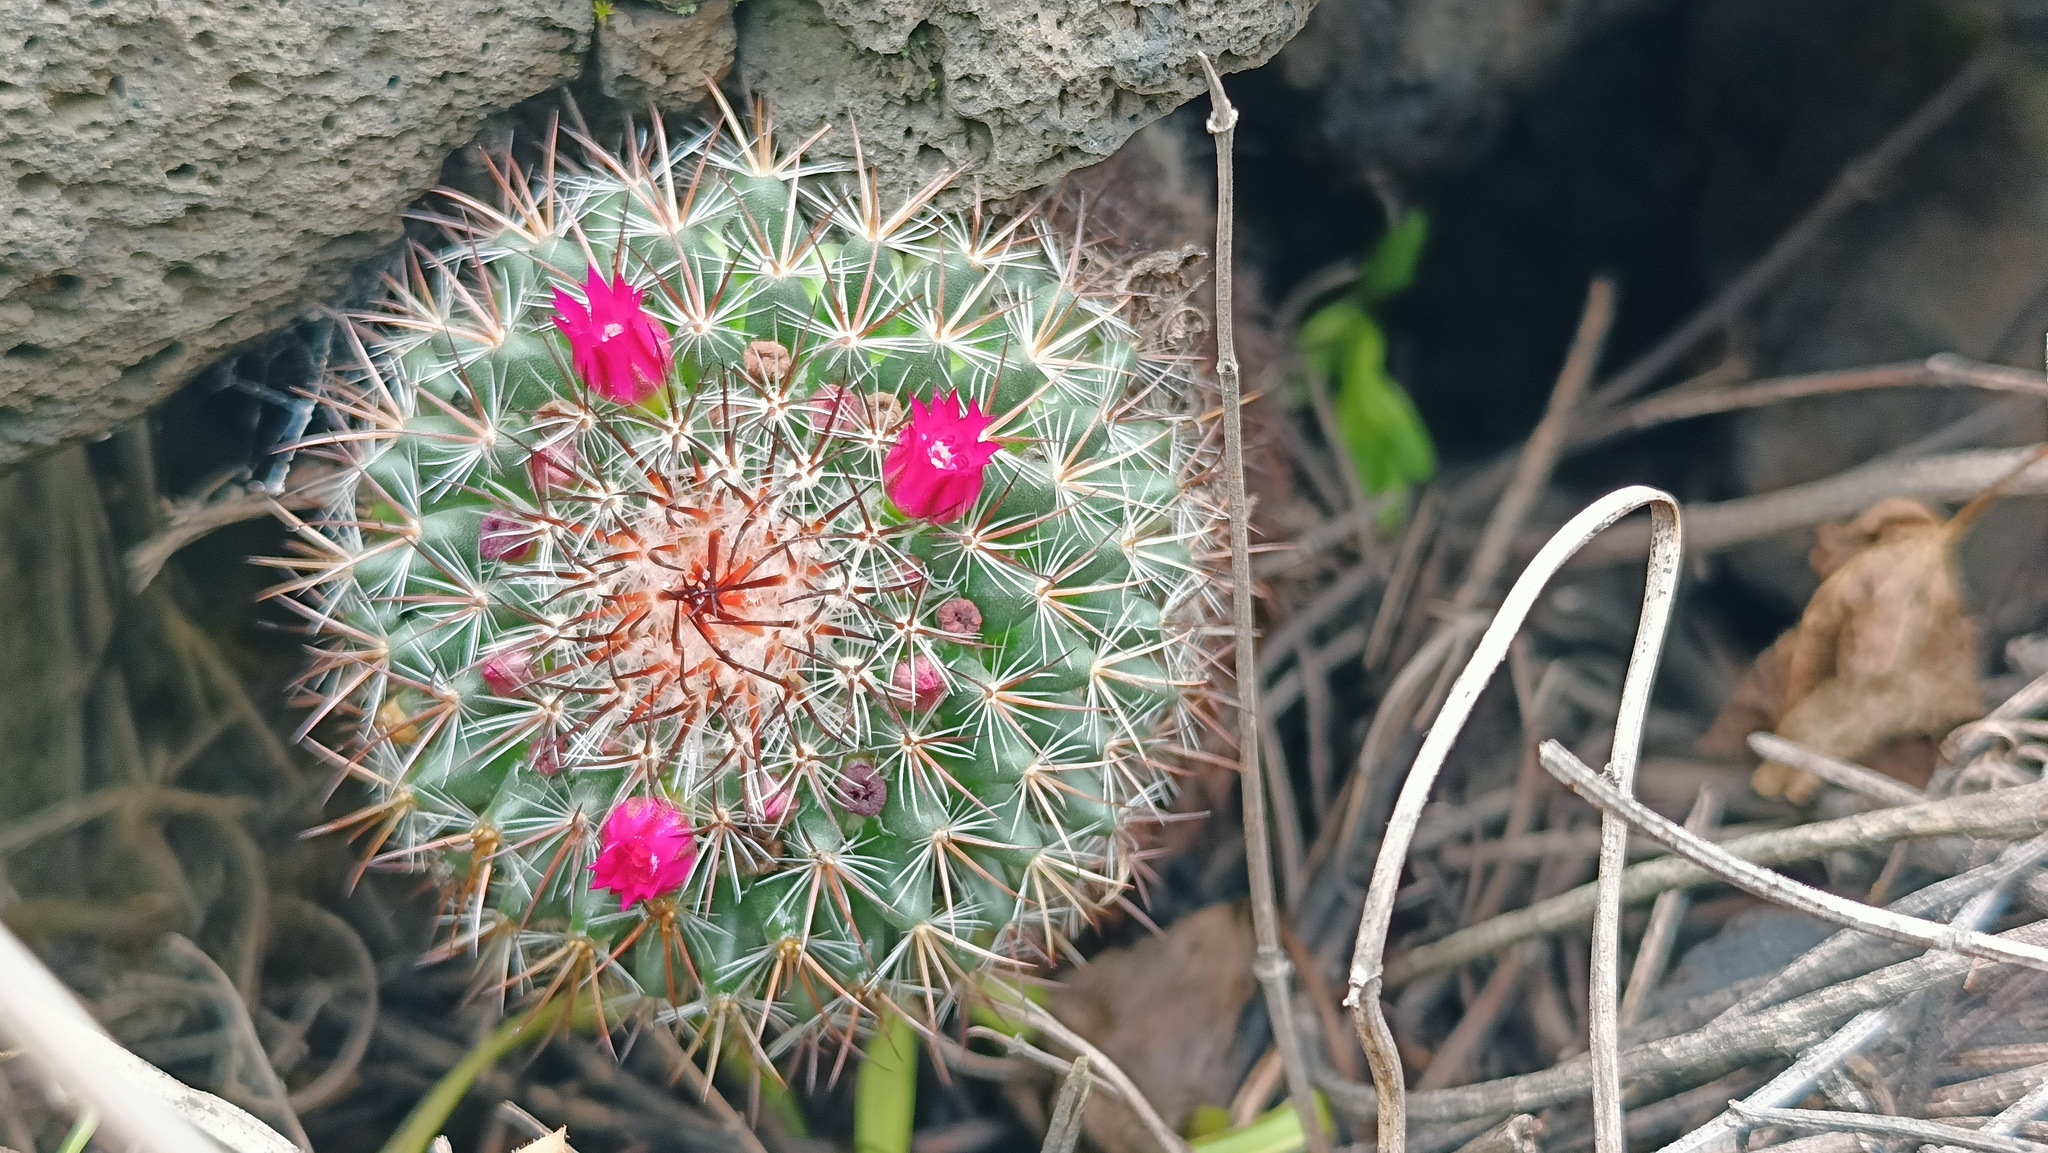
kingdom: Plantae
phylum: Tracheophyta
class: Magnoliopsida
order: Caryophyllales
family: Cactaceae
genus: Mammillaria
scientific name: Mammillaria rhodantha
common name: Rainbow pincushion
